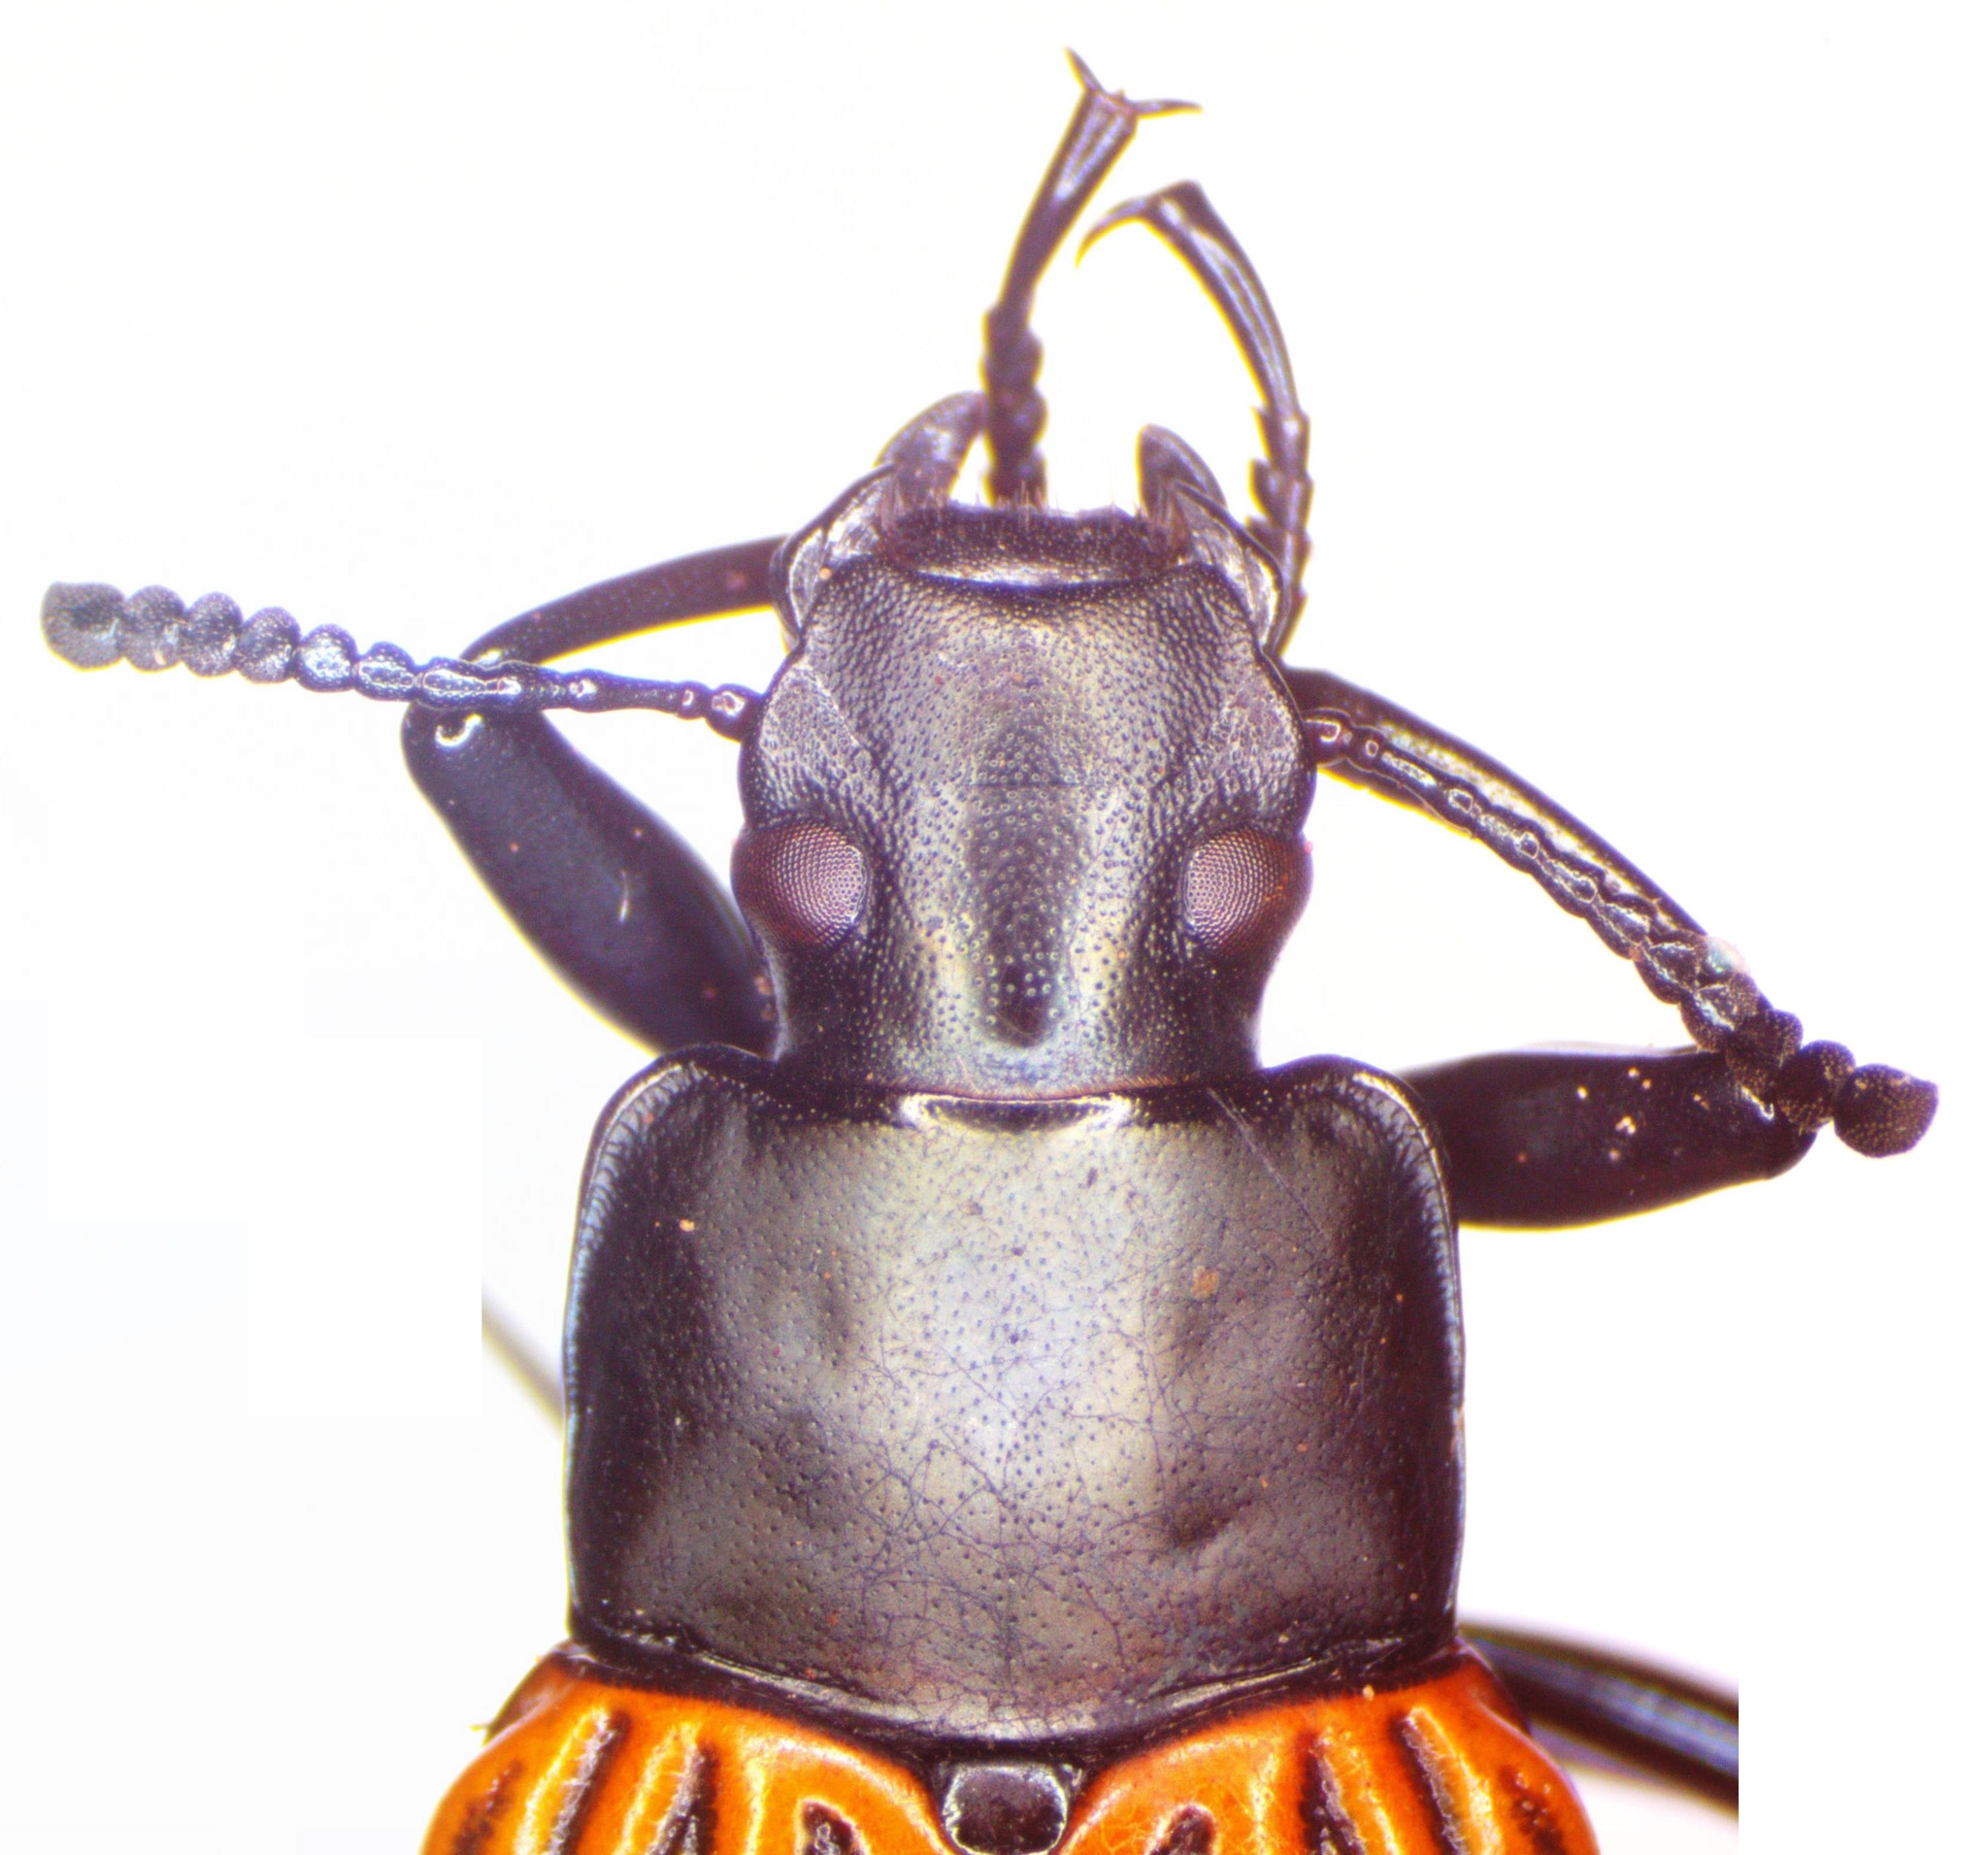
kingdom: Animalia
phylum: Arthropoda
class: Insecta
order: Coleoptera
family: Tenebrionidae
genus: Blapida
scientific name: Blapida alternata
